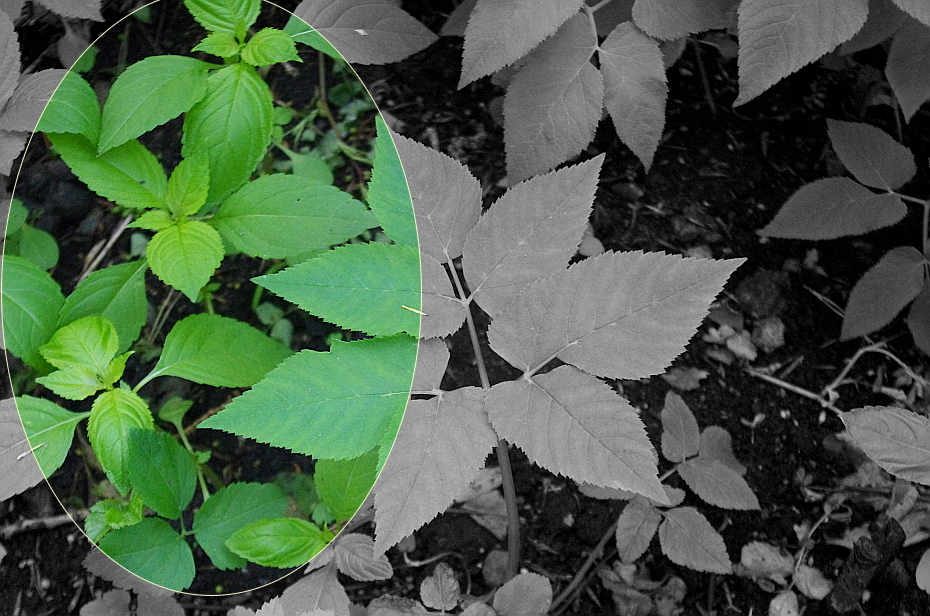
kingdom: Plantae
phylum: Tracheophyta
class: Magnoliopsida
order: Ericales
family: Balsaminaceae
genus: Impatiens
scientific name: Impatiens parviflora
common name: Small balsam
